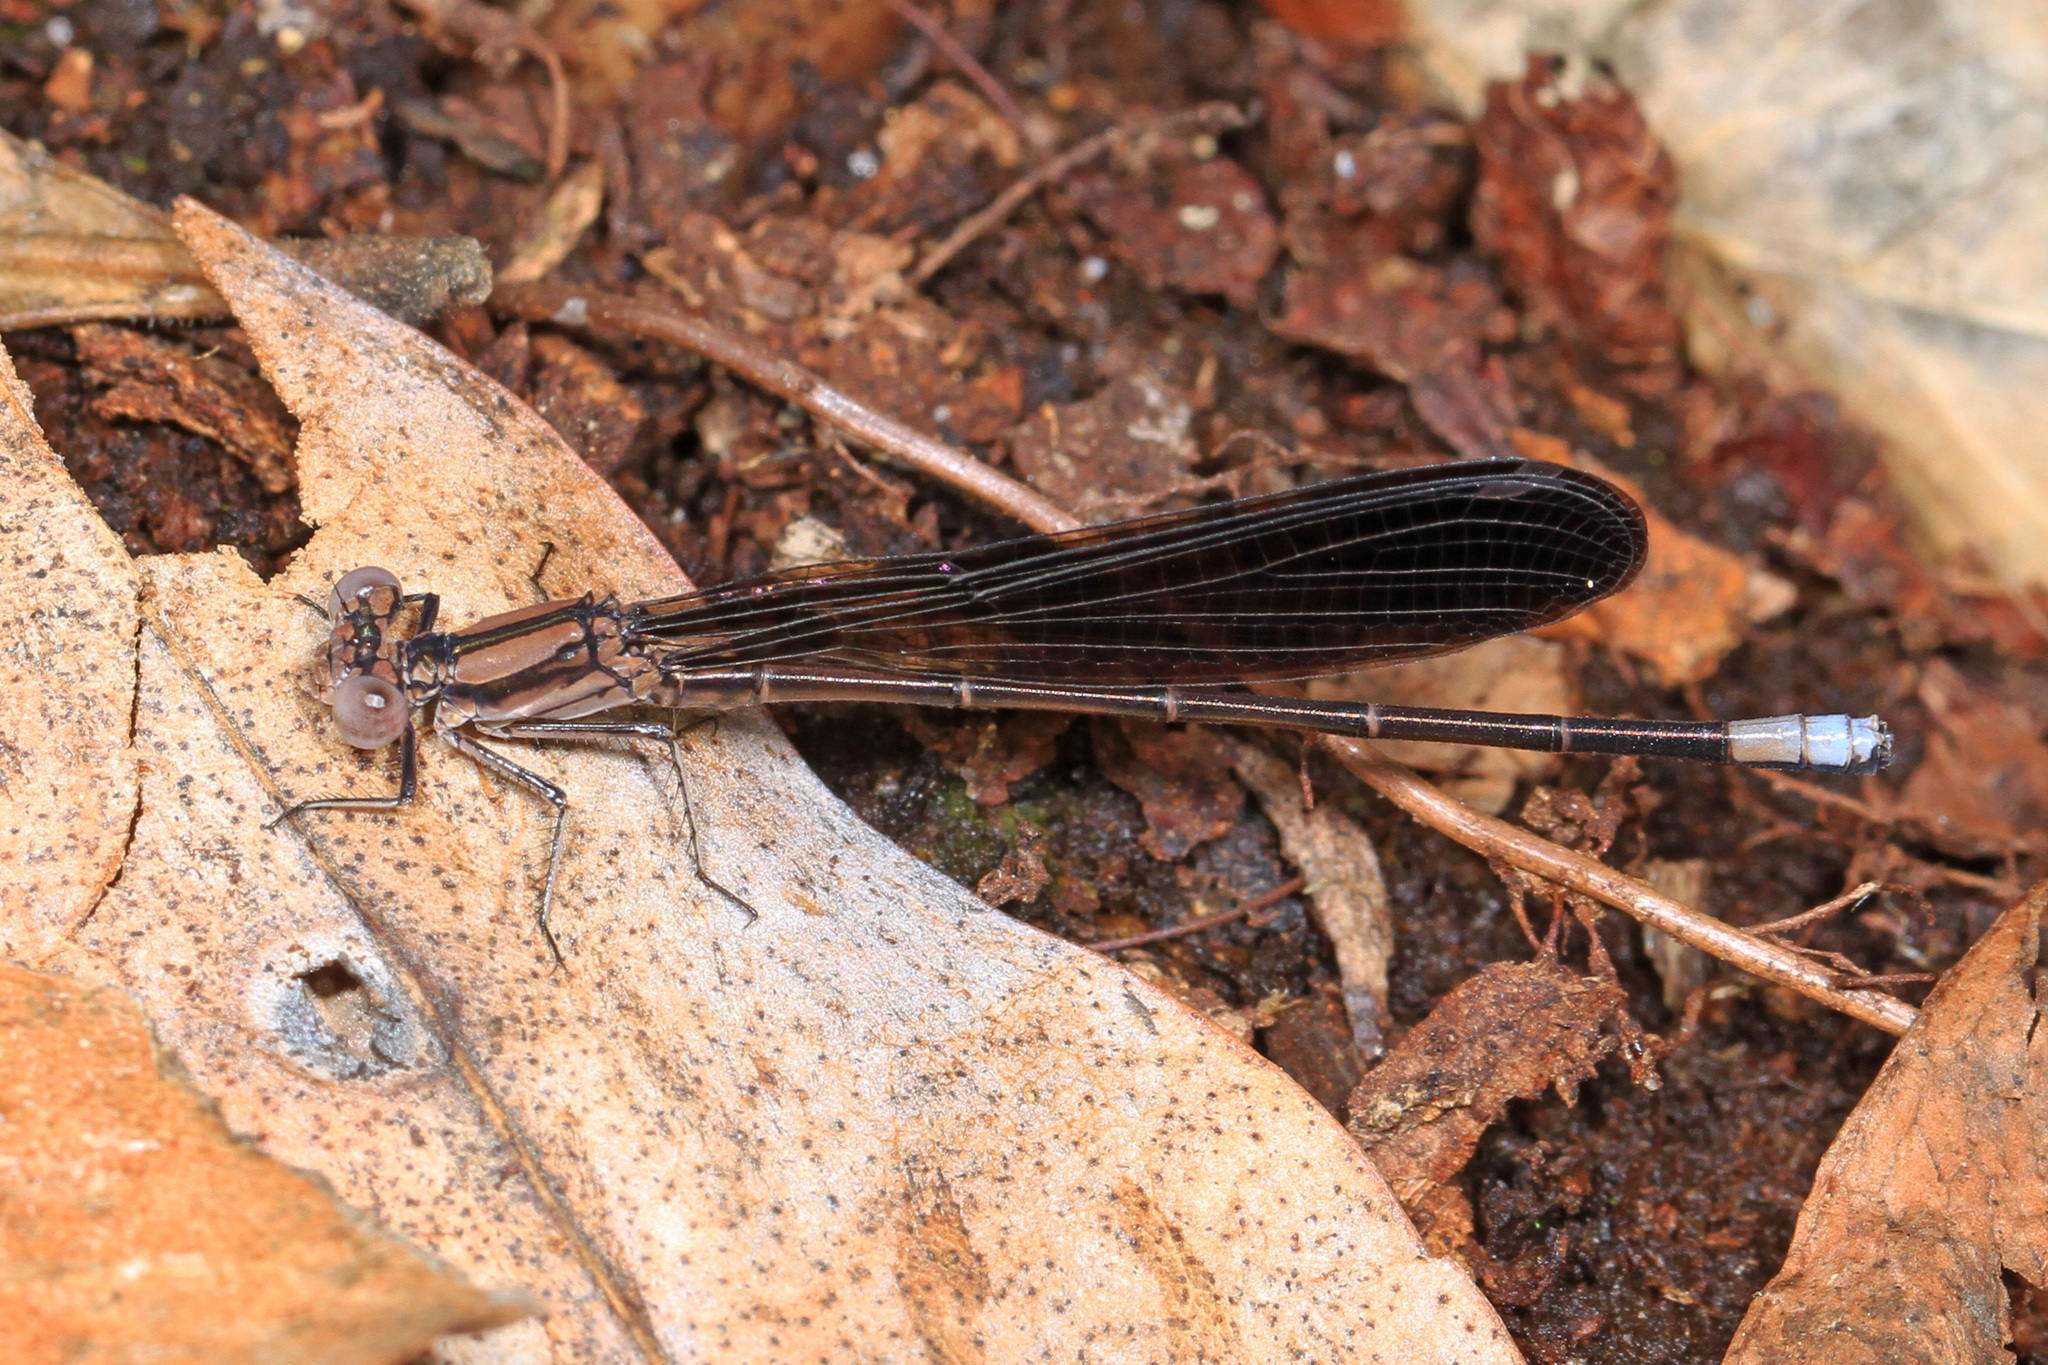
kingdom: Animalia
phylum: Arthropoda
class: Insecta
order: Odonata
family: Coenagrionidae
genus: Argia
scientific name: Argia fumipennis
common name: Variable dancer
